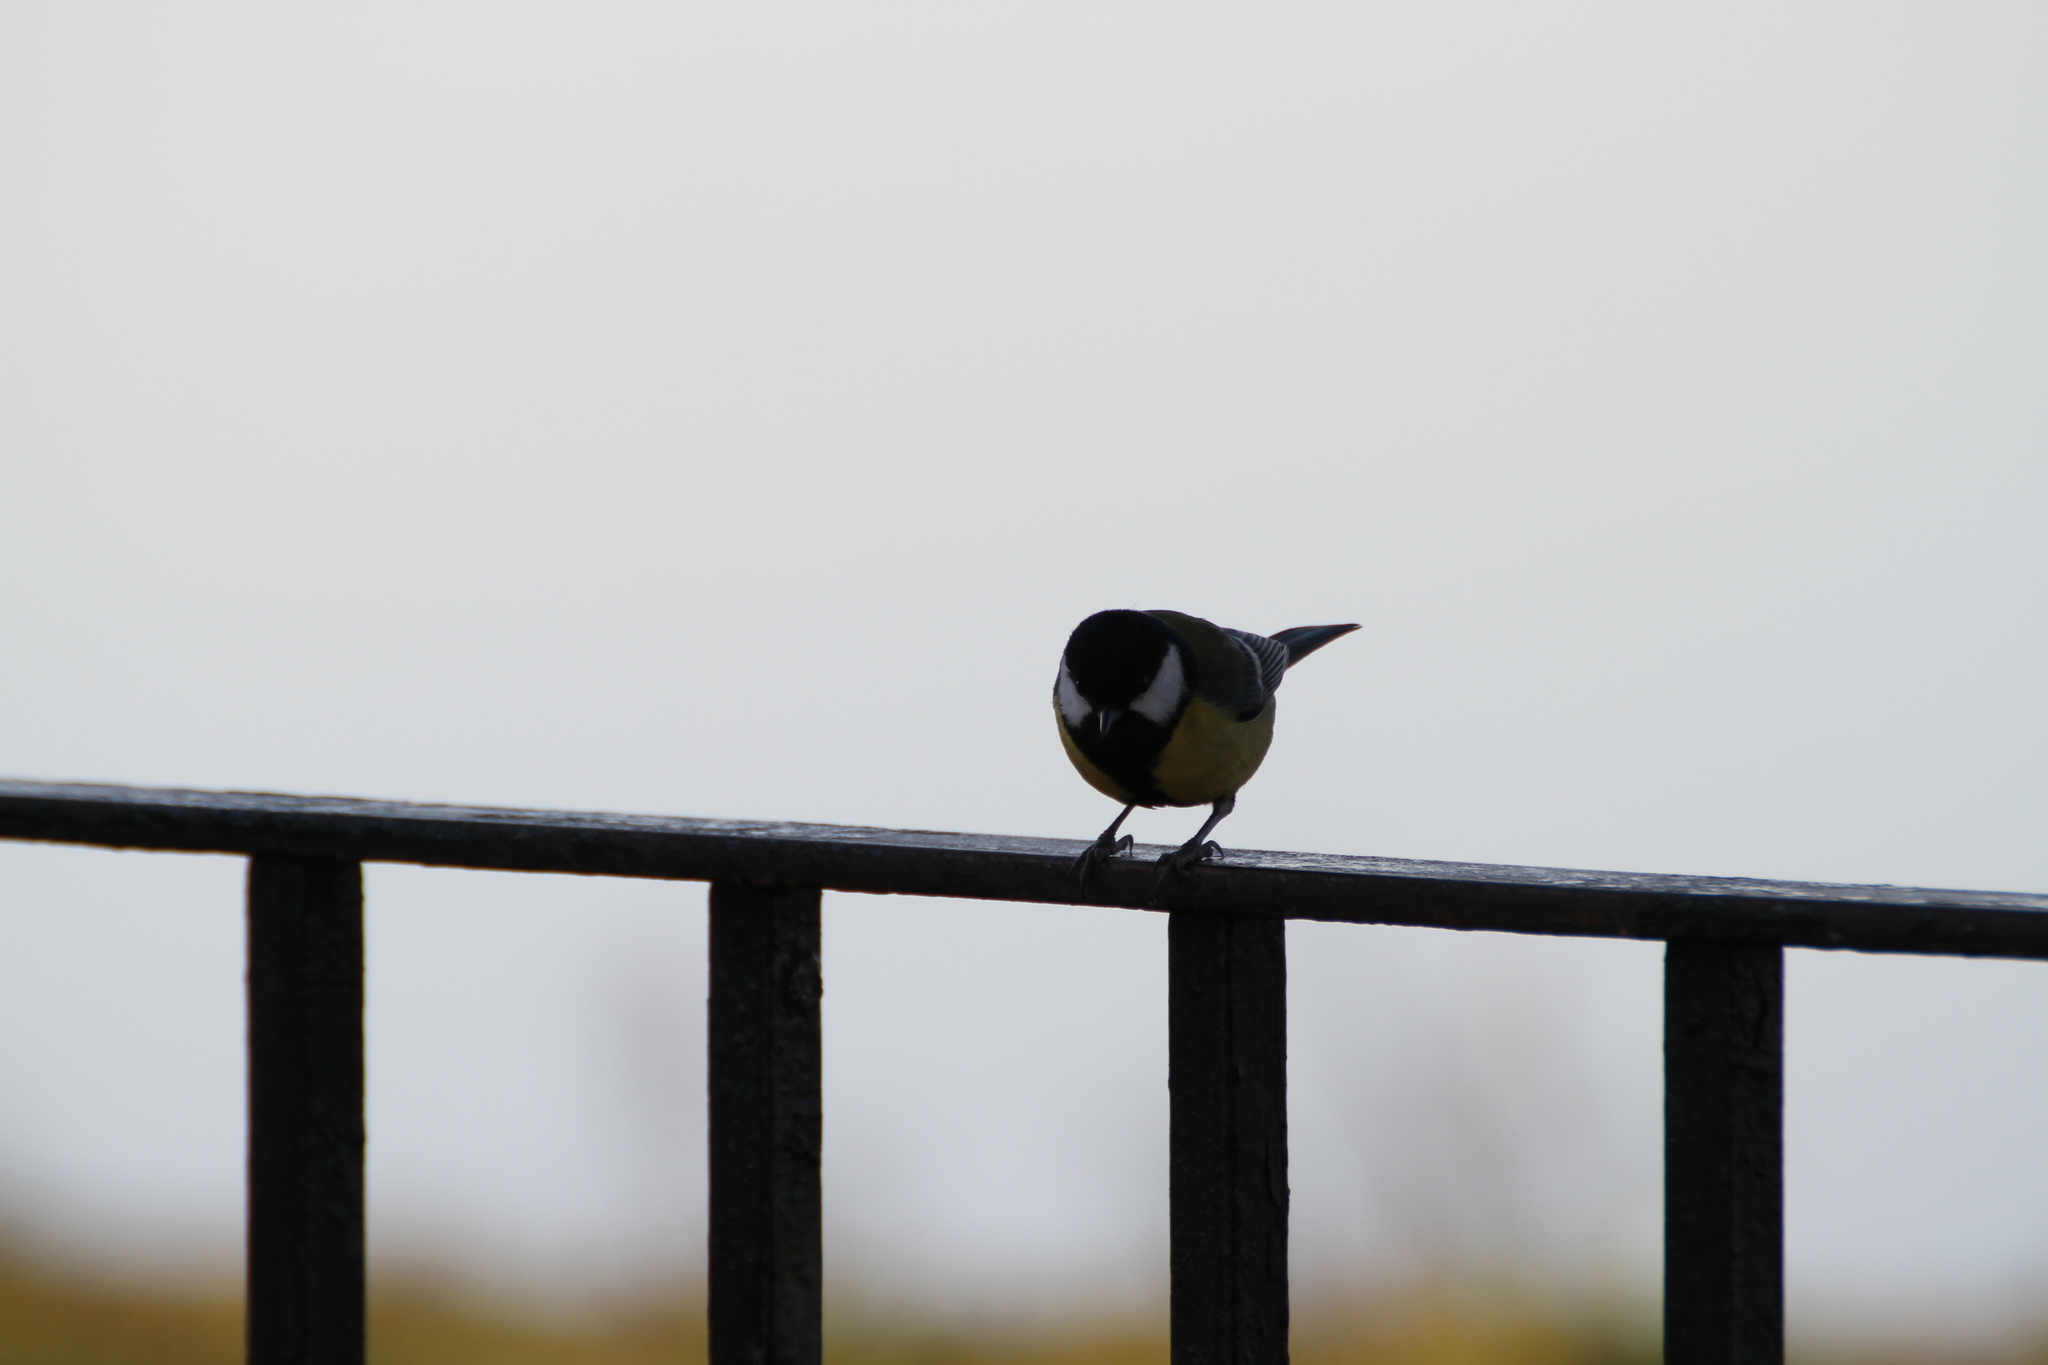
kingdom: Animalia
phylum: Chordata
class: Aves
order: Passeriformes
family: Paridae
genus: Parus
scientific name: Parus major
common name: Great tit
